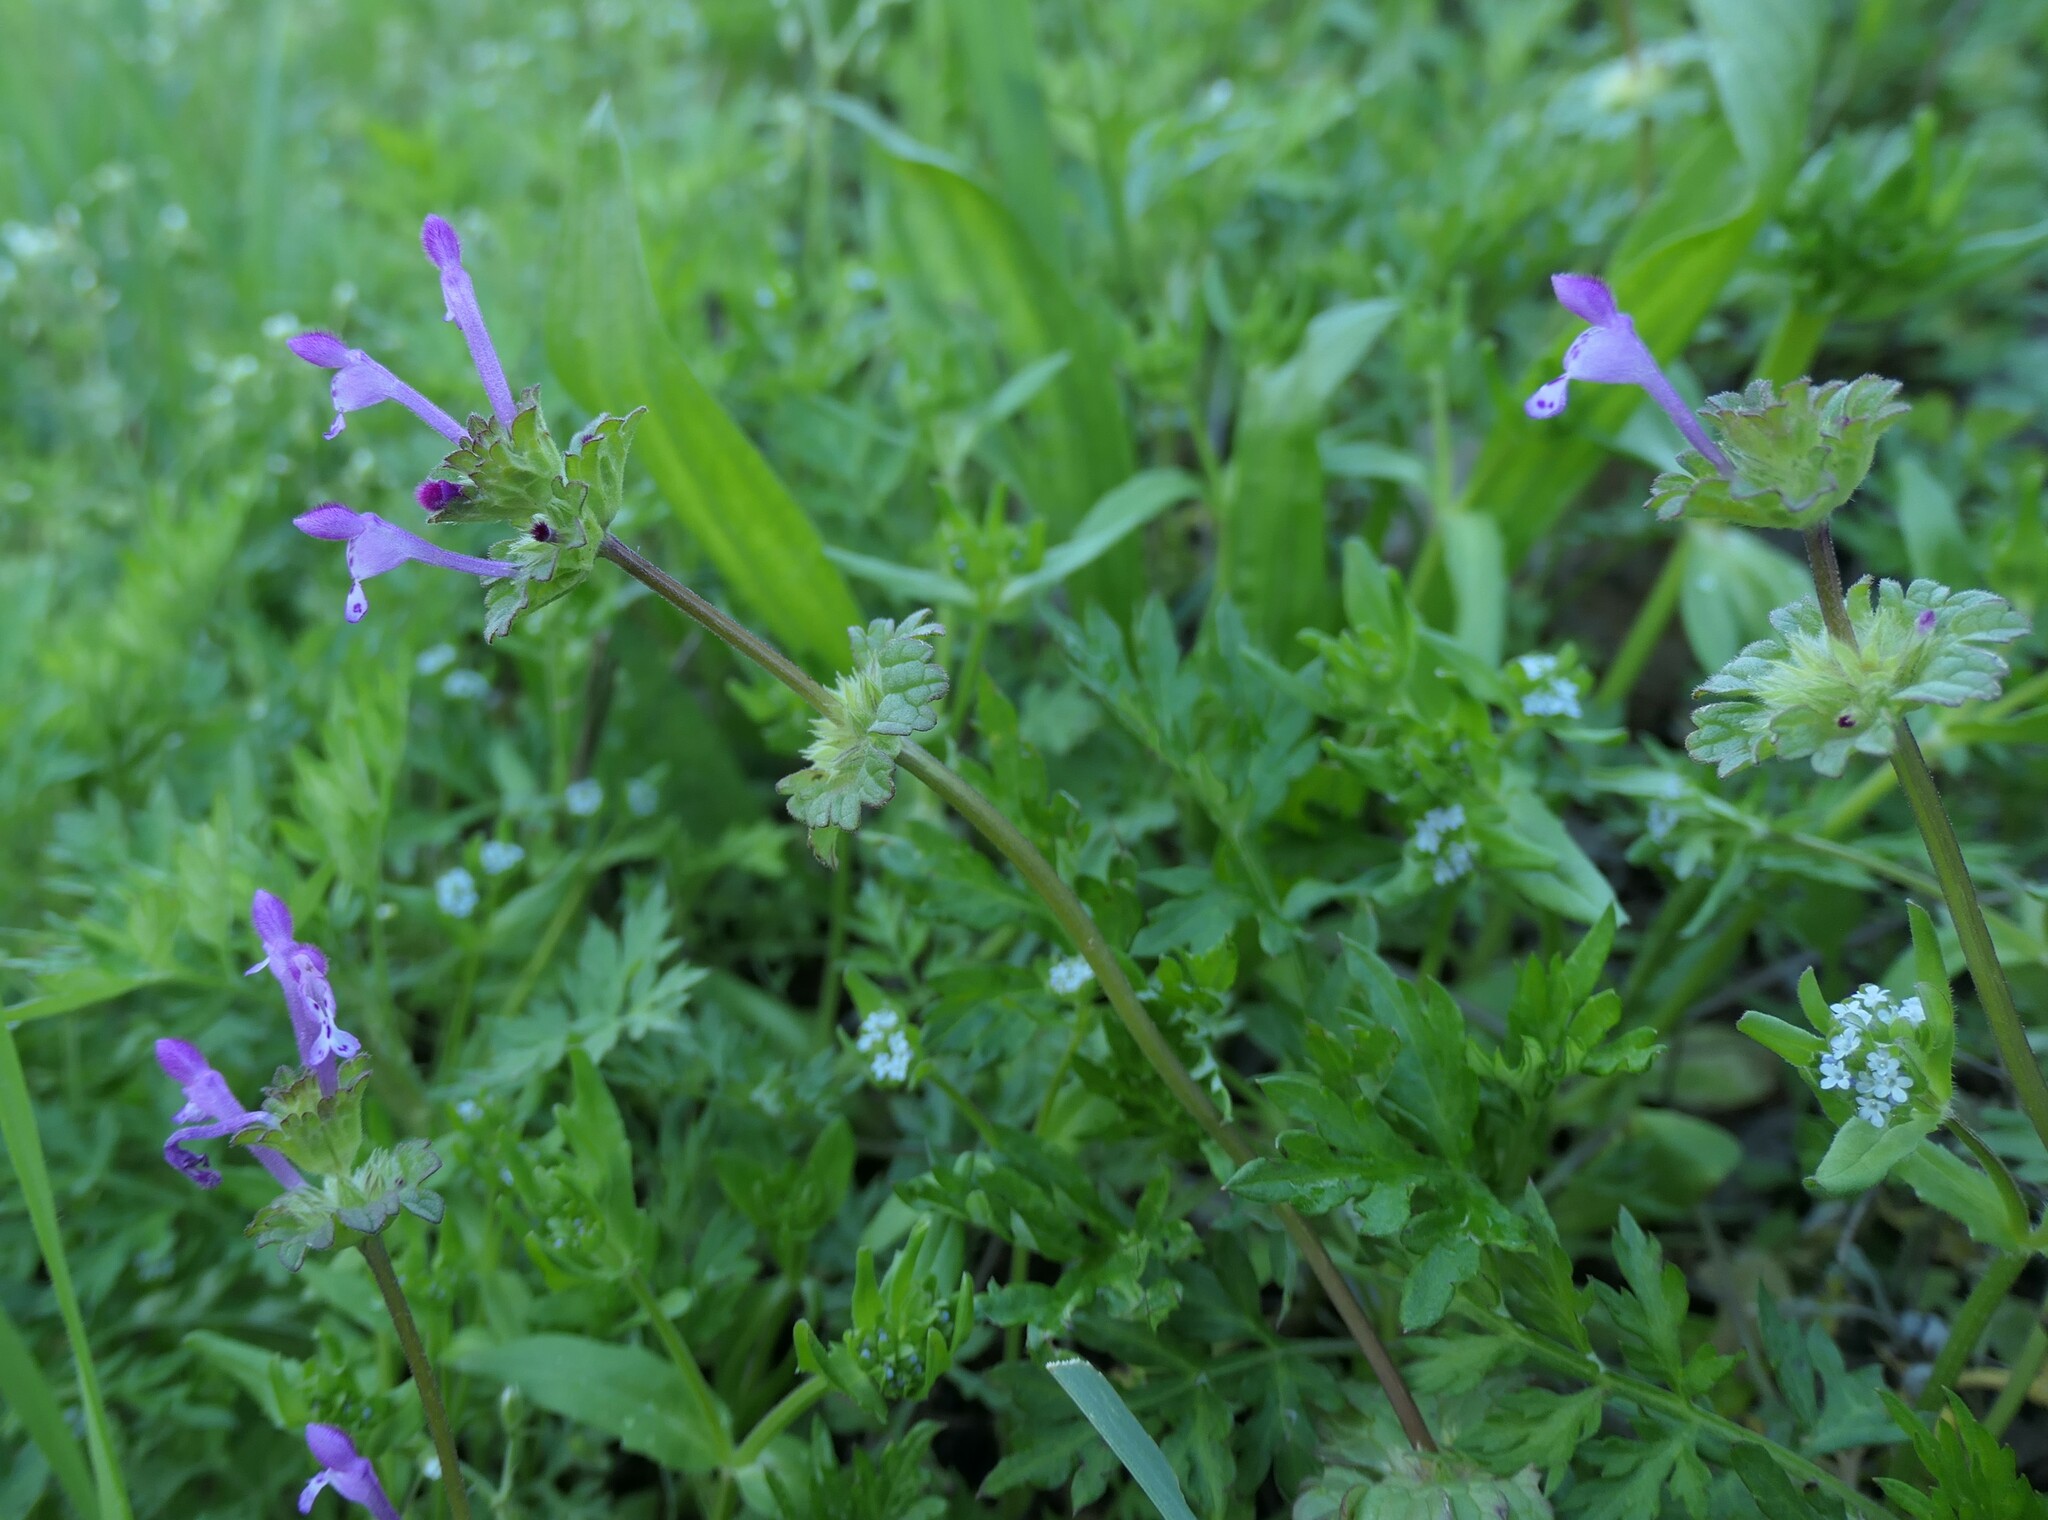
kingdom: Plantae
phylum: Tracheophyta
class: Magnoliopsida
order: Lamiales
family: Lamiaceae
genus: Lamium
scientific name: Lamium amplexicaule
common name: Henbit dead-nettle
